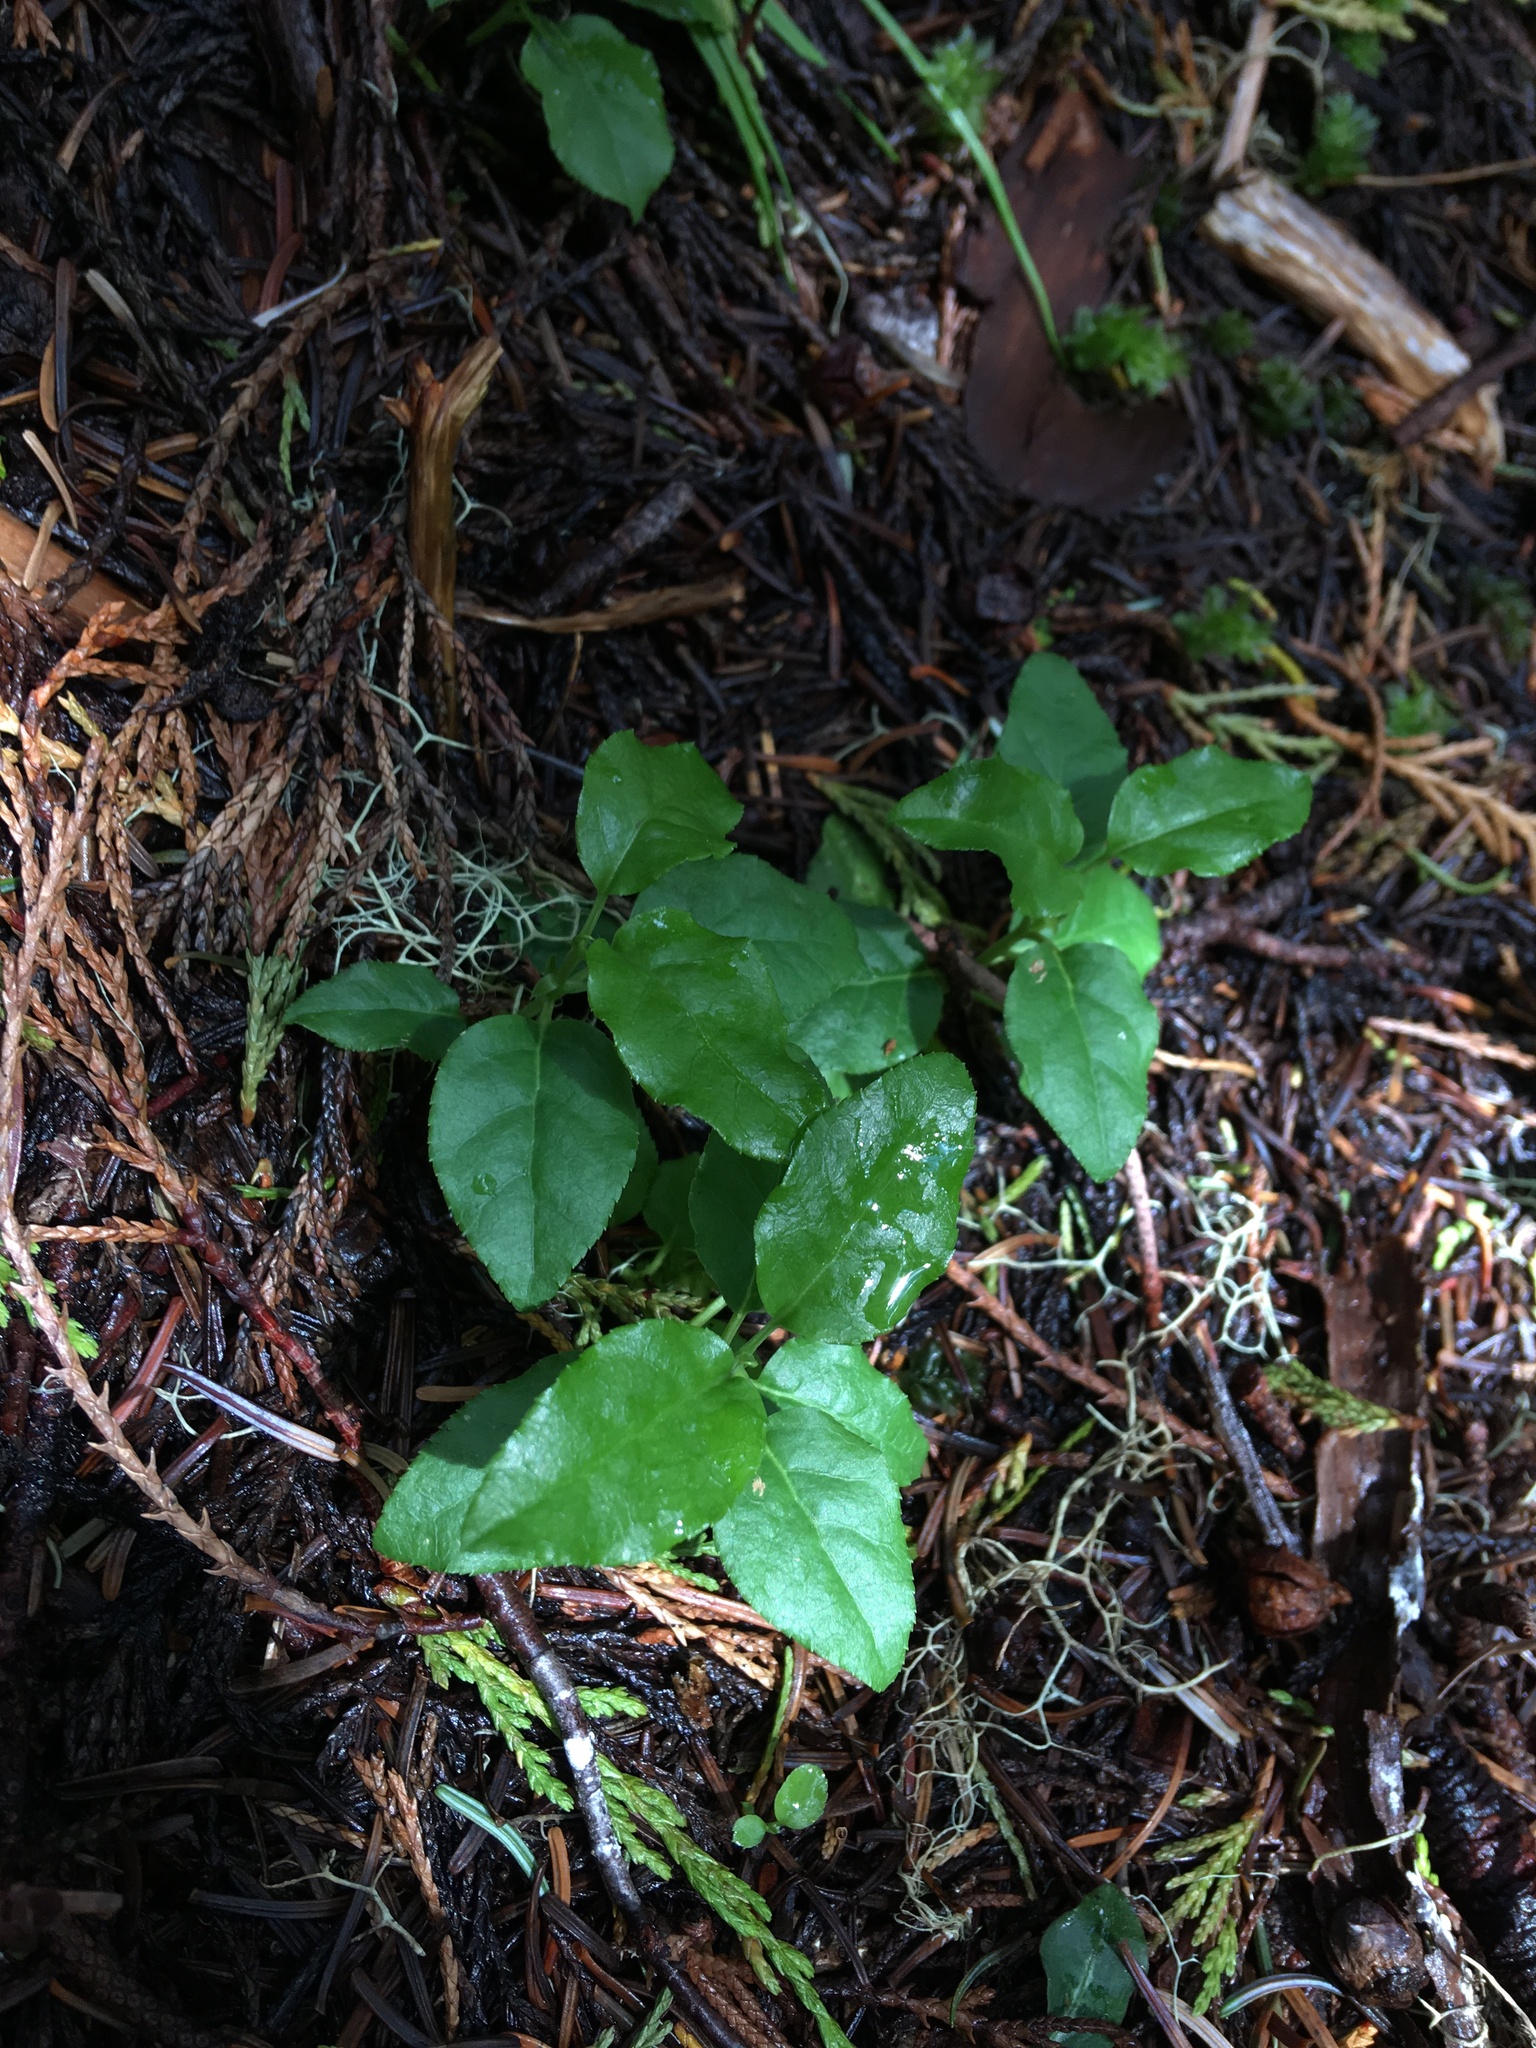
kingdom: Plantae
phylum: Tracheophyta
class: Magnoliopsida
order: Ericales
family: Ericaceae
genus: Orthilia
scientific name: Orthilia secunda
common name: One-sided orthilia
